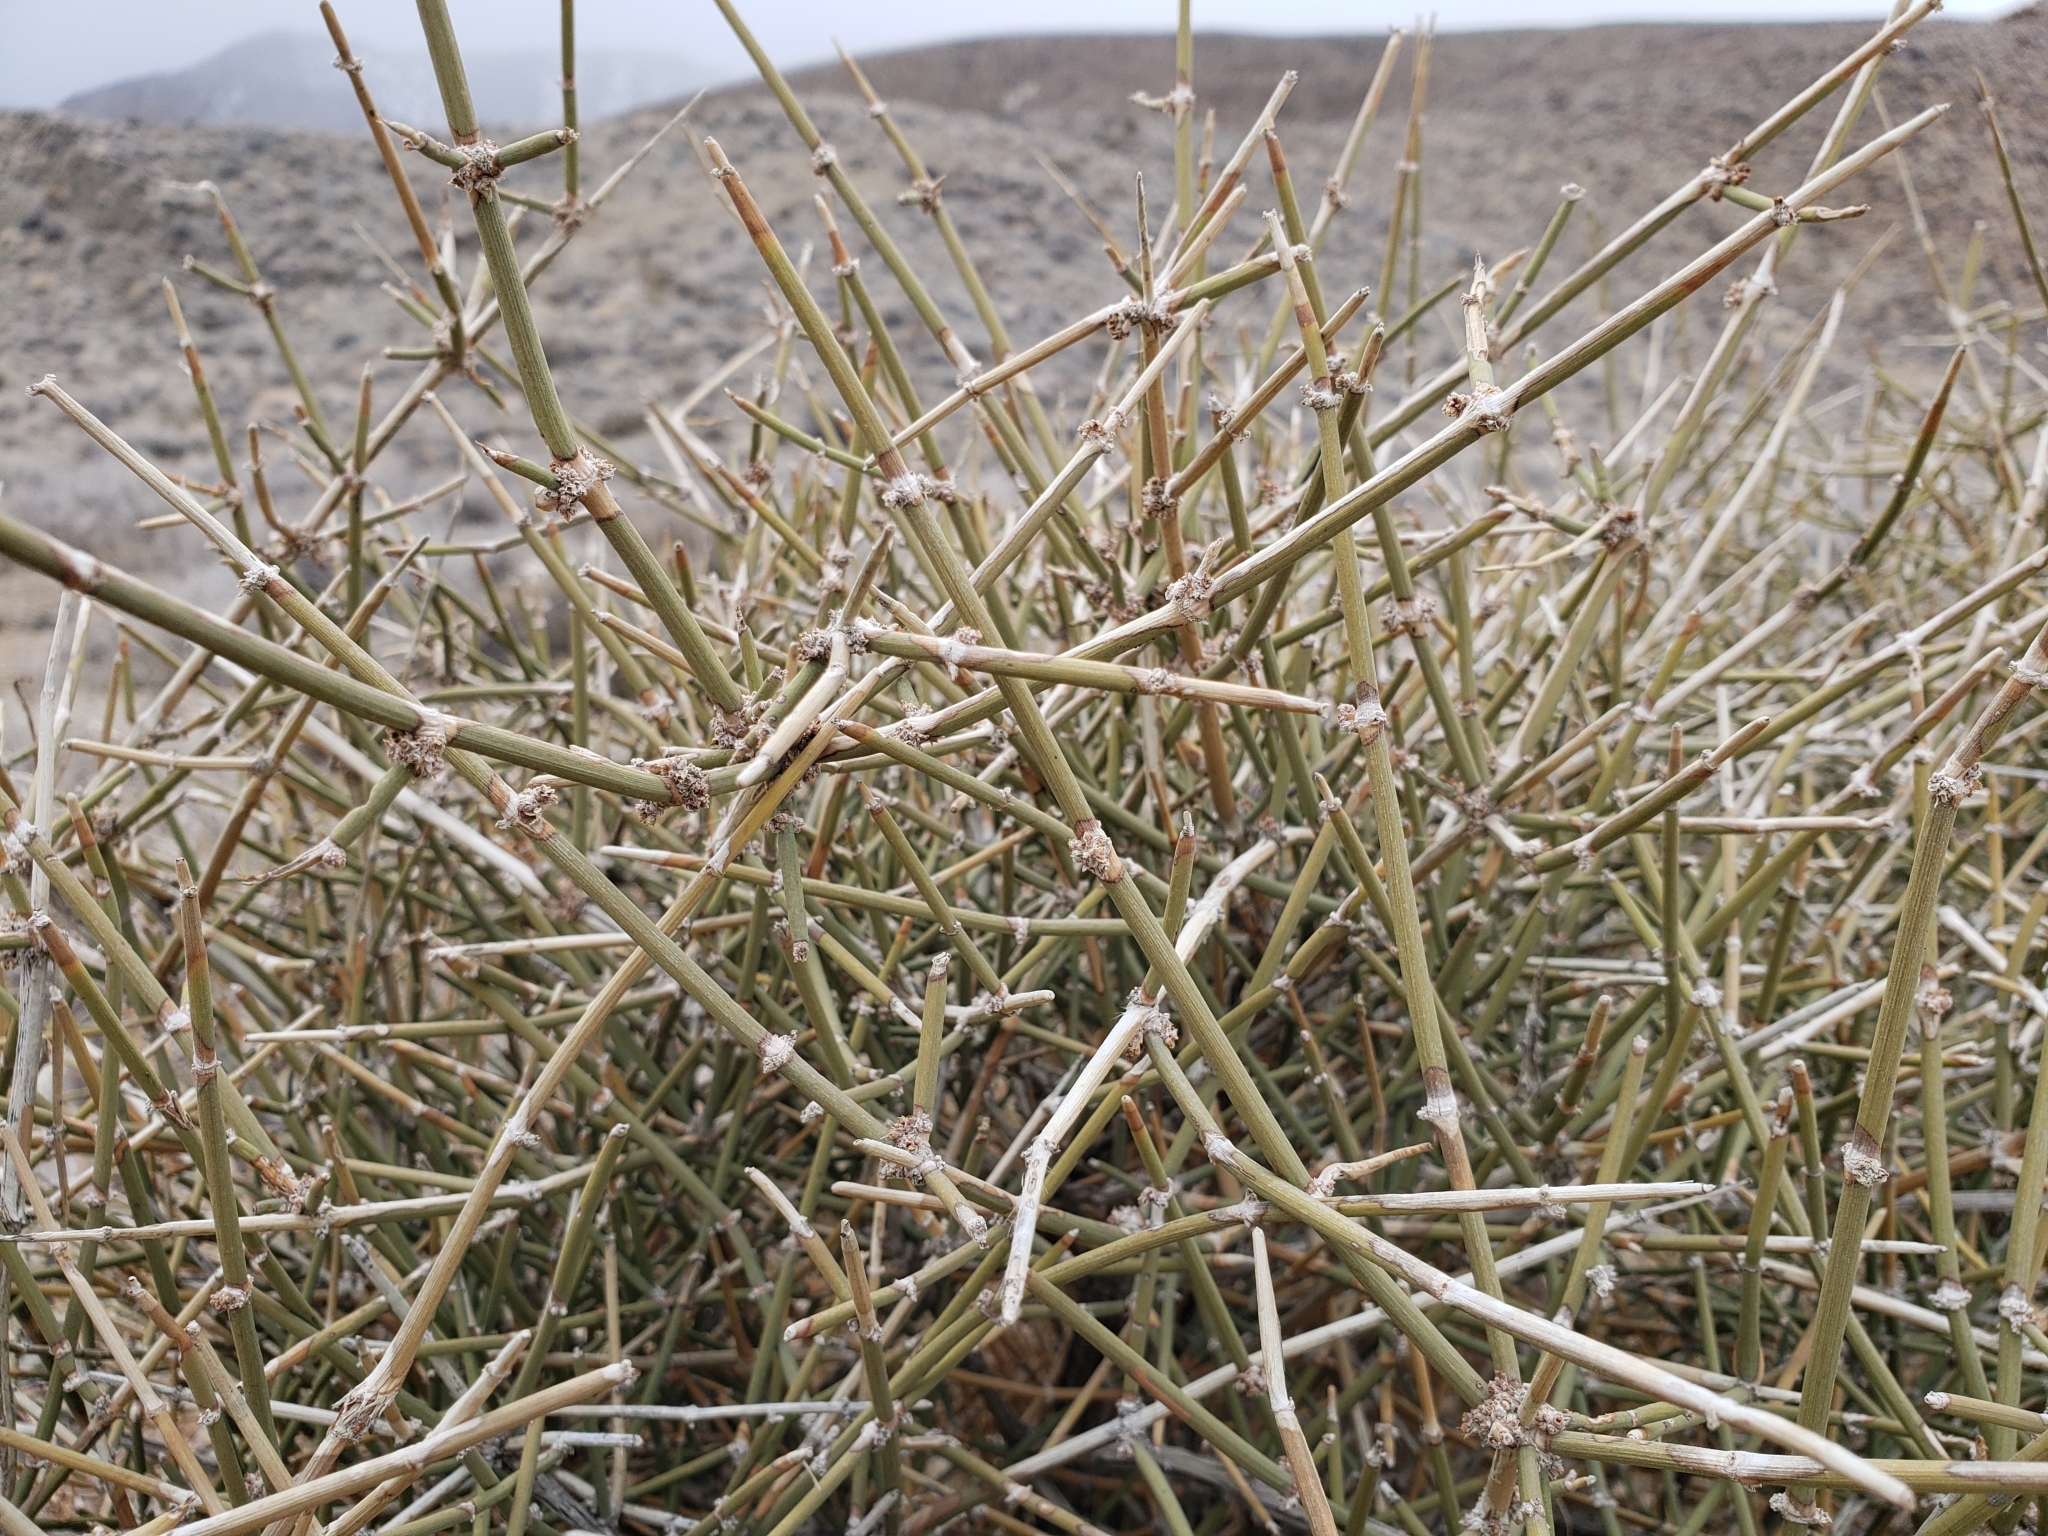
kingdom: Plantae
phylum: Tracheophyta
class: Gnetopsida
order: Ephedrales
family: Ephedraceae
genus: Ephedra
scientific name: Ephedra nevadensis
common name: Gray ephedra
